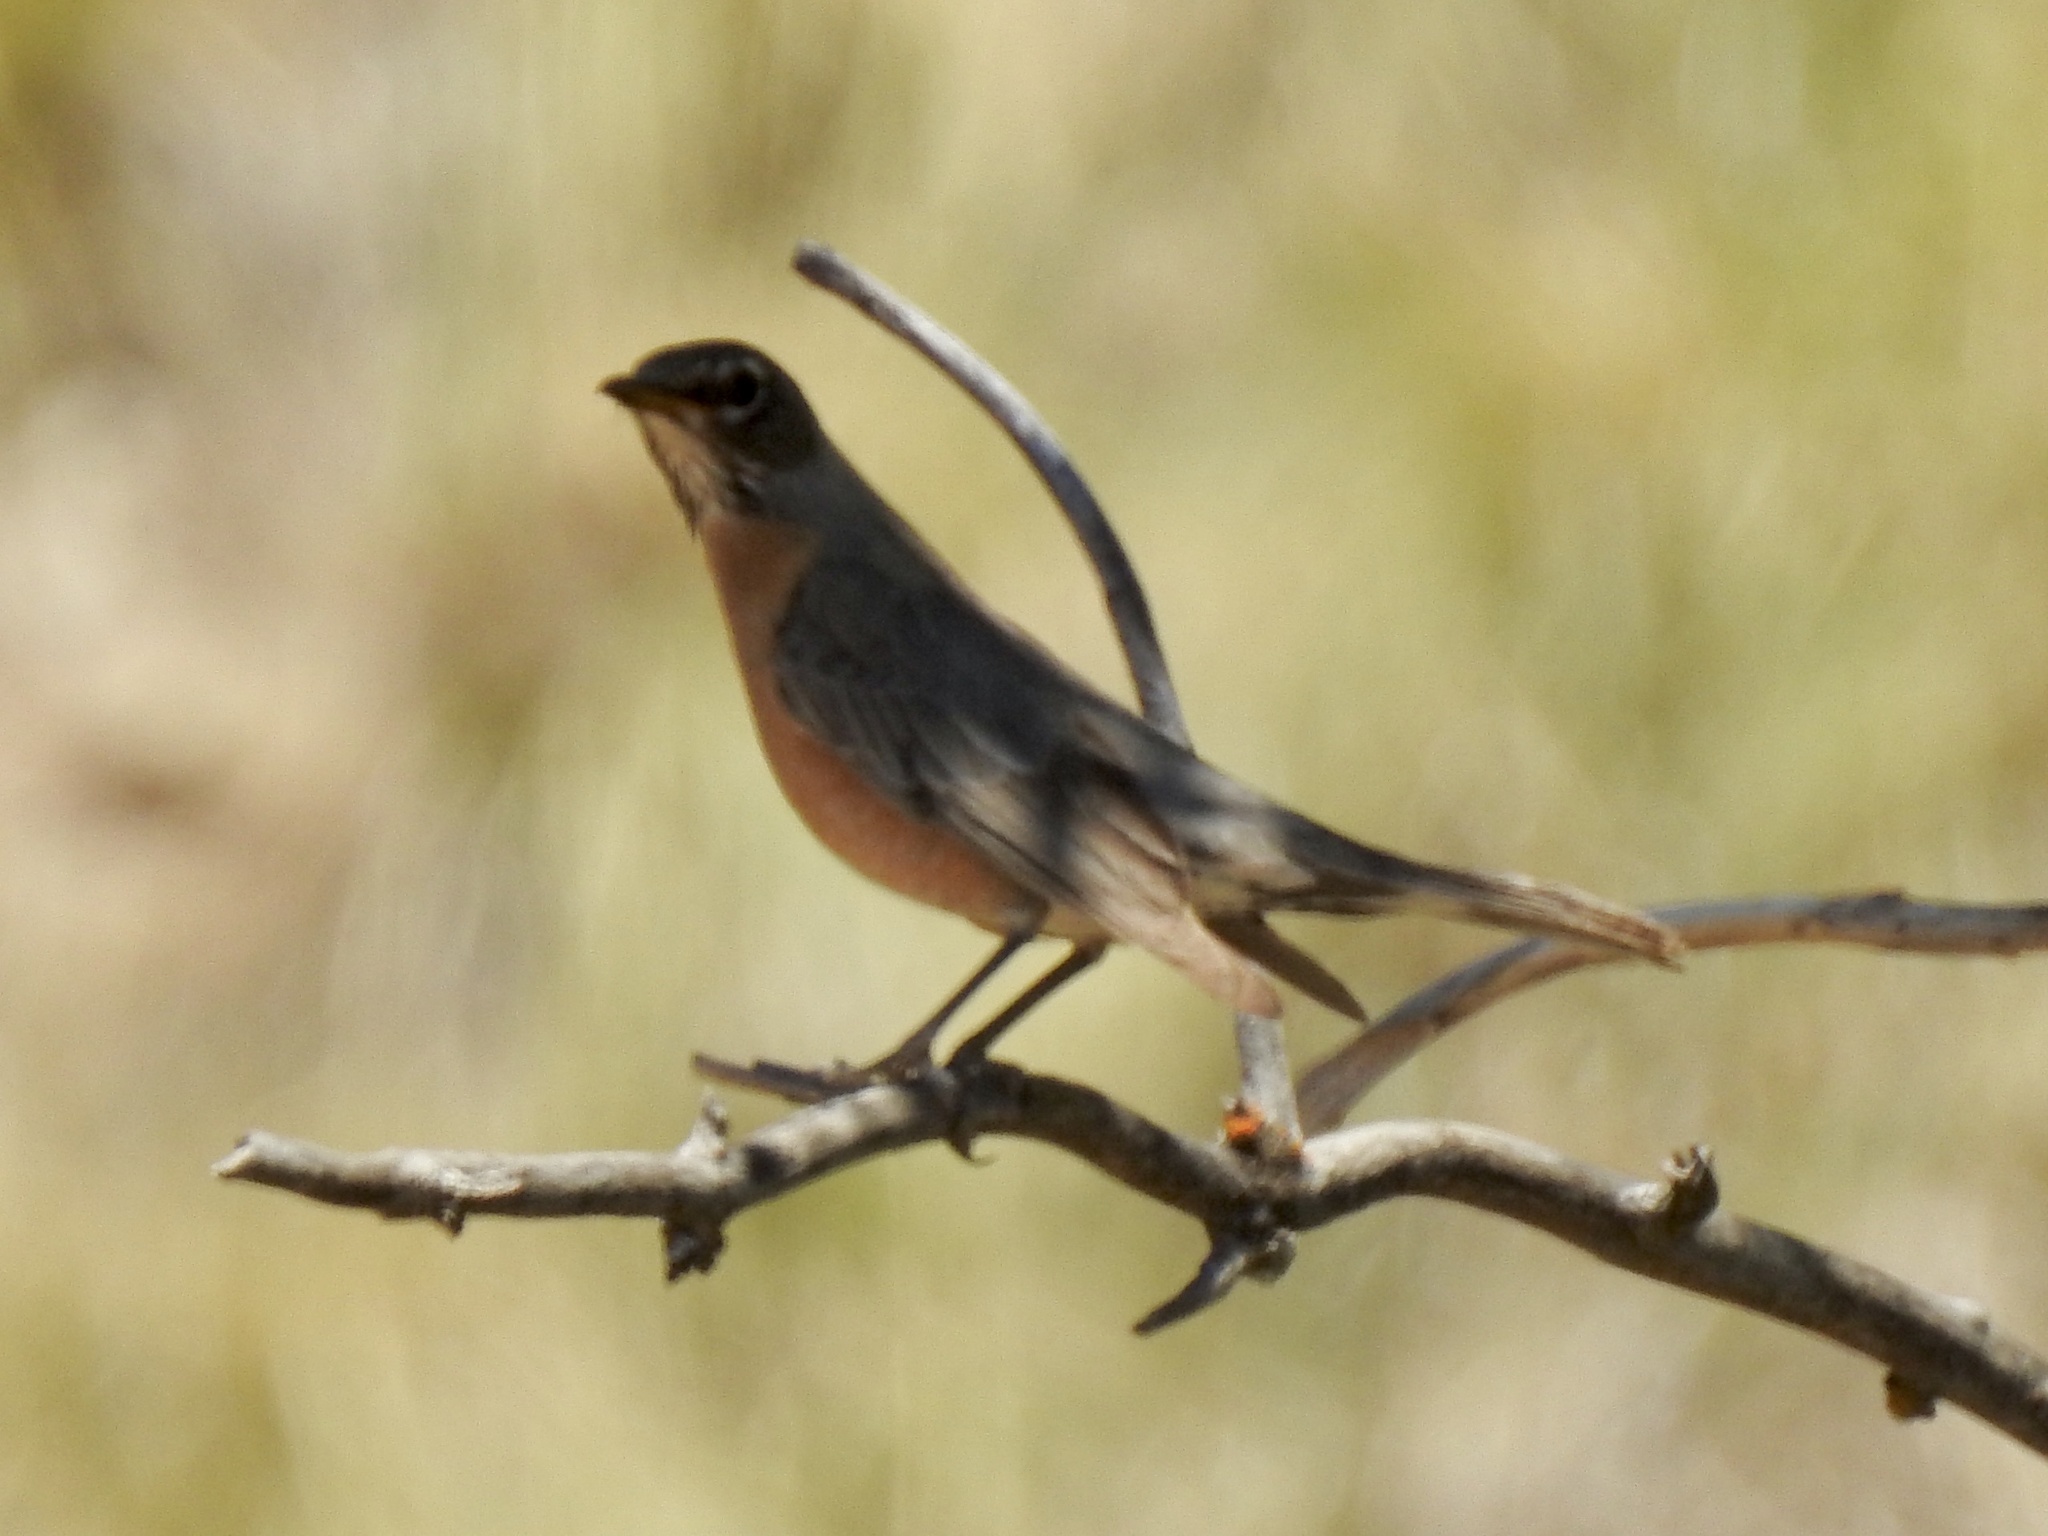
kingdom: Animalia
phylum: Chordata
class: Aves
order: Passeriformes
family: Turdidae
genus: Turdus
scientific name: Turdus migratorius
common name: American robin
